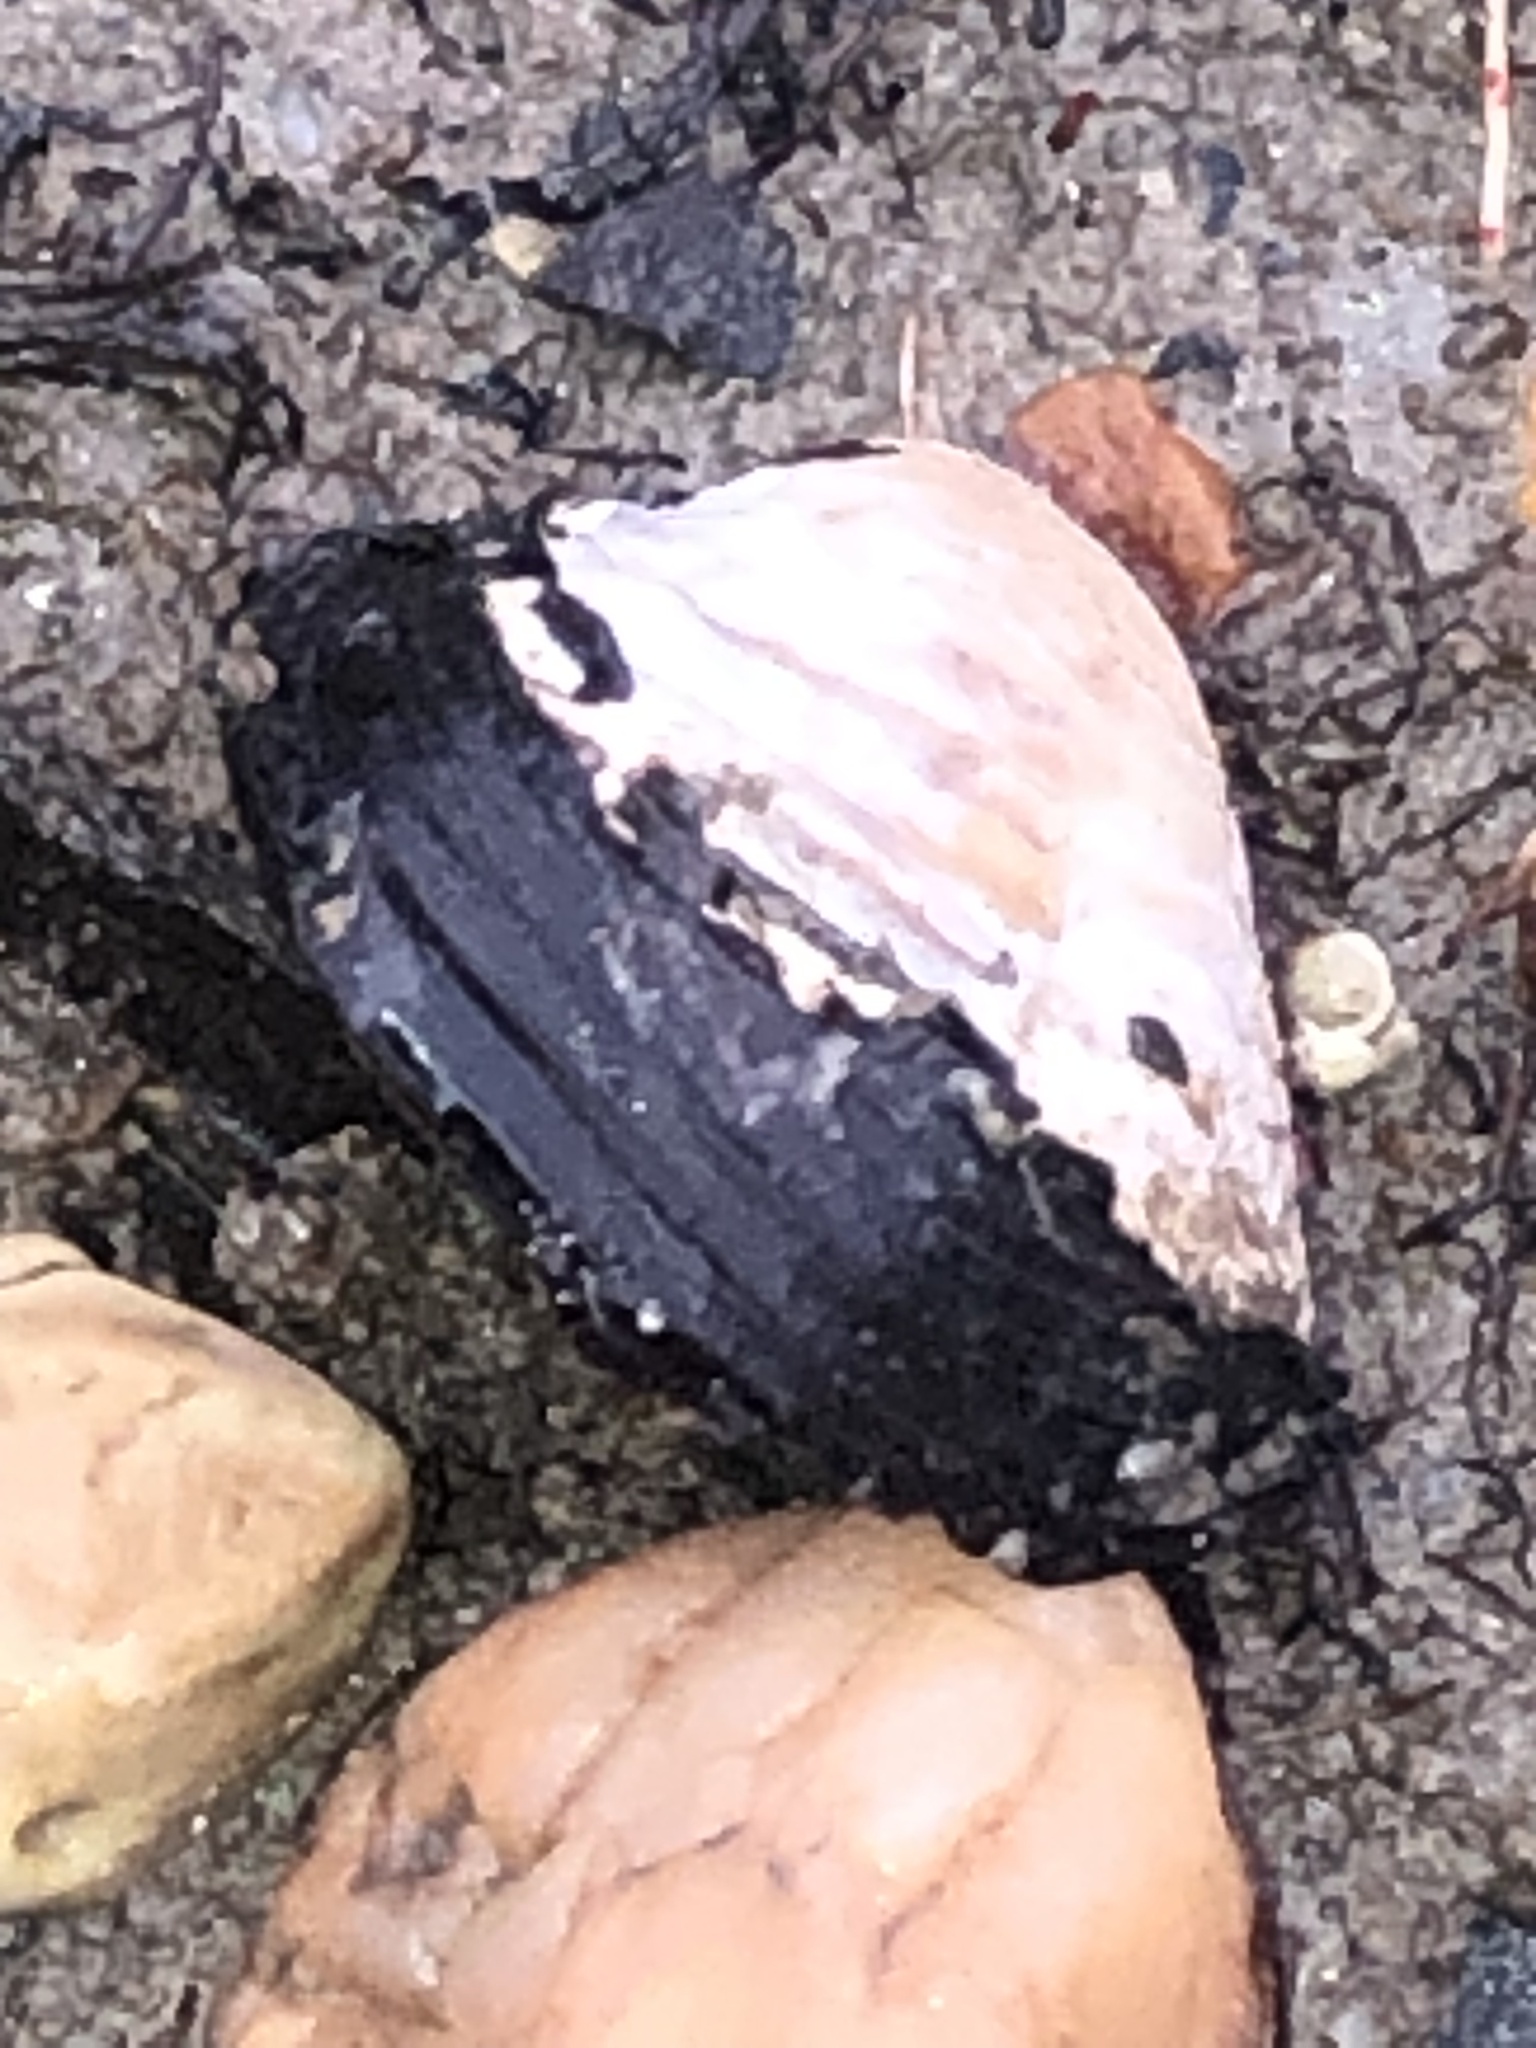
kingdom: Animalia
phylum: Mollusca
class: Bivalvia
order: Venerida
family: Cyrenidae
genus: Corbicula
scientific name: Corbicula fluminea
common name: Asian clam
